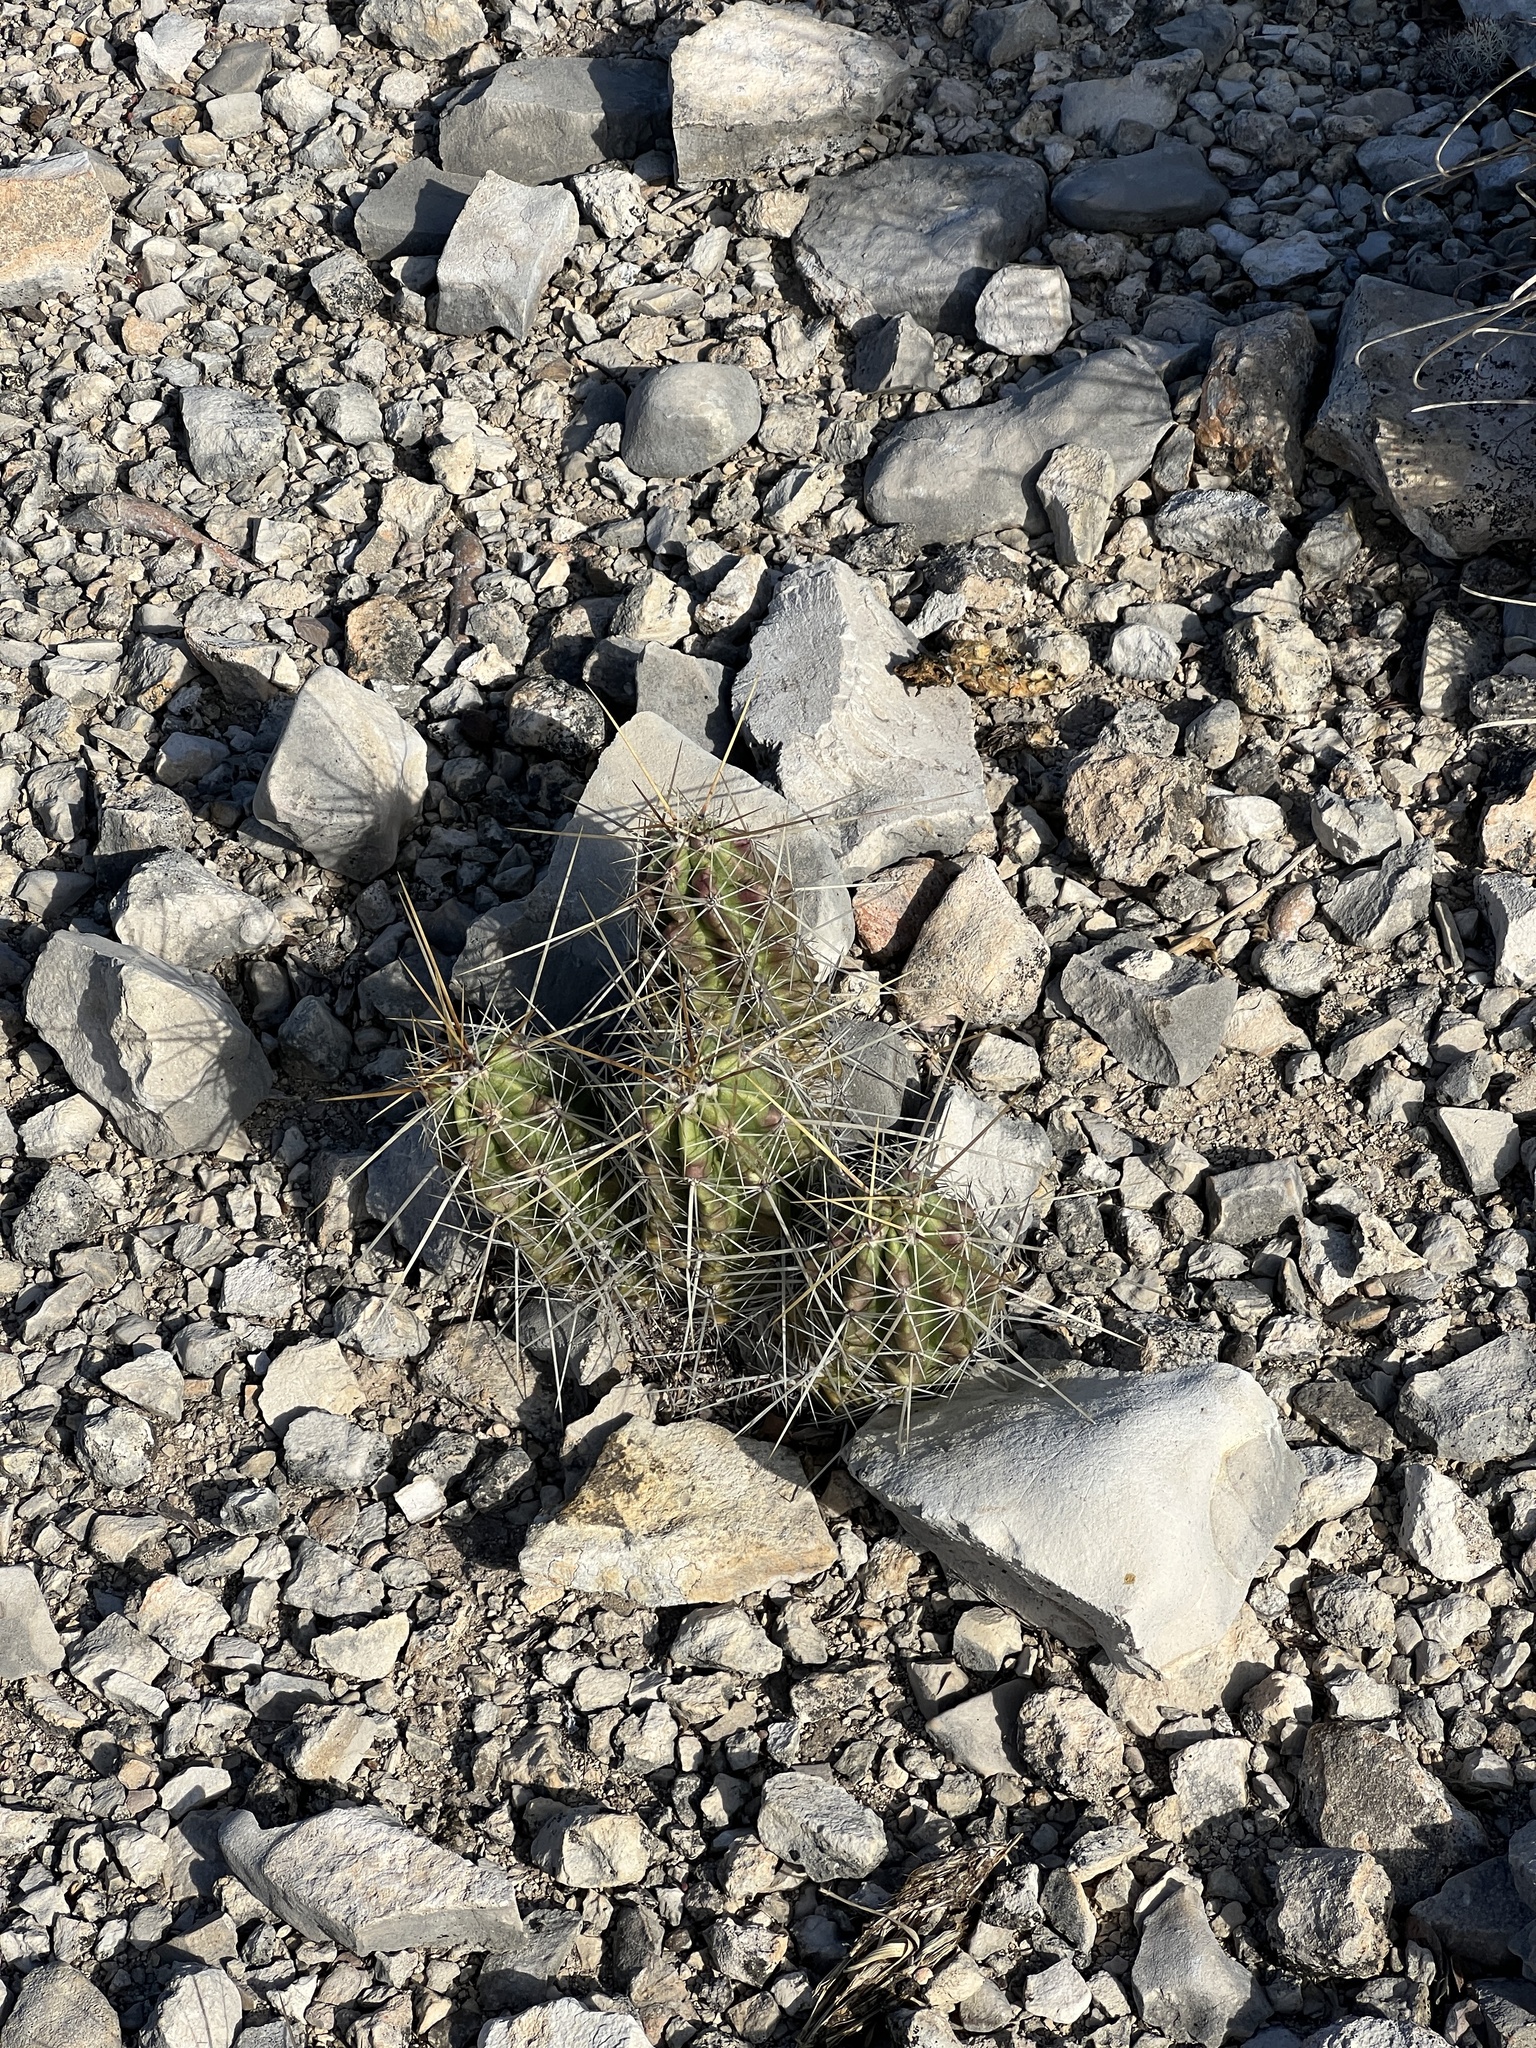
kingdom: Plantae
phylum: Tracheophyta
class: Magnoliopsida
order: Caryophyllales
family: Cactaceae
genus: Echinocereus
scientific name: Echinocereus enneacanthus
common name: Pitaya
